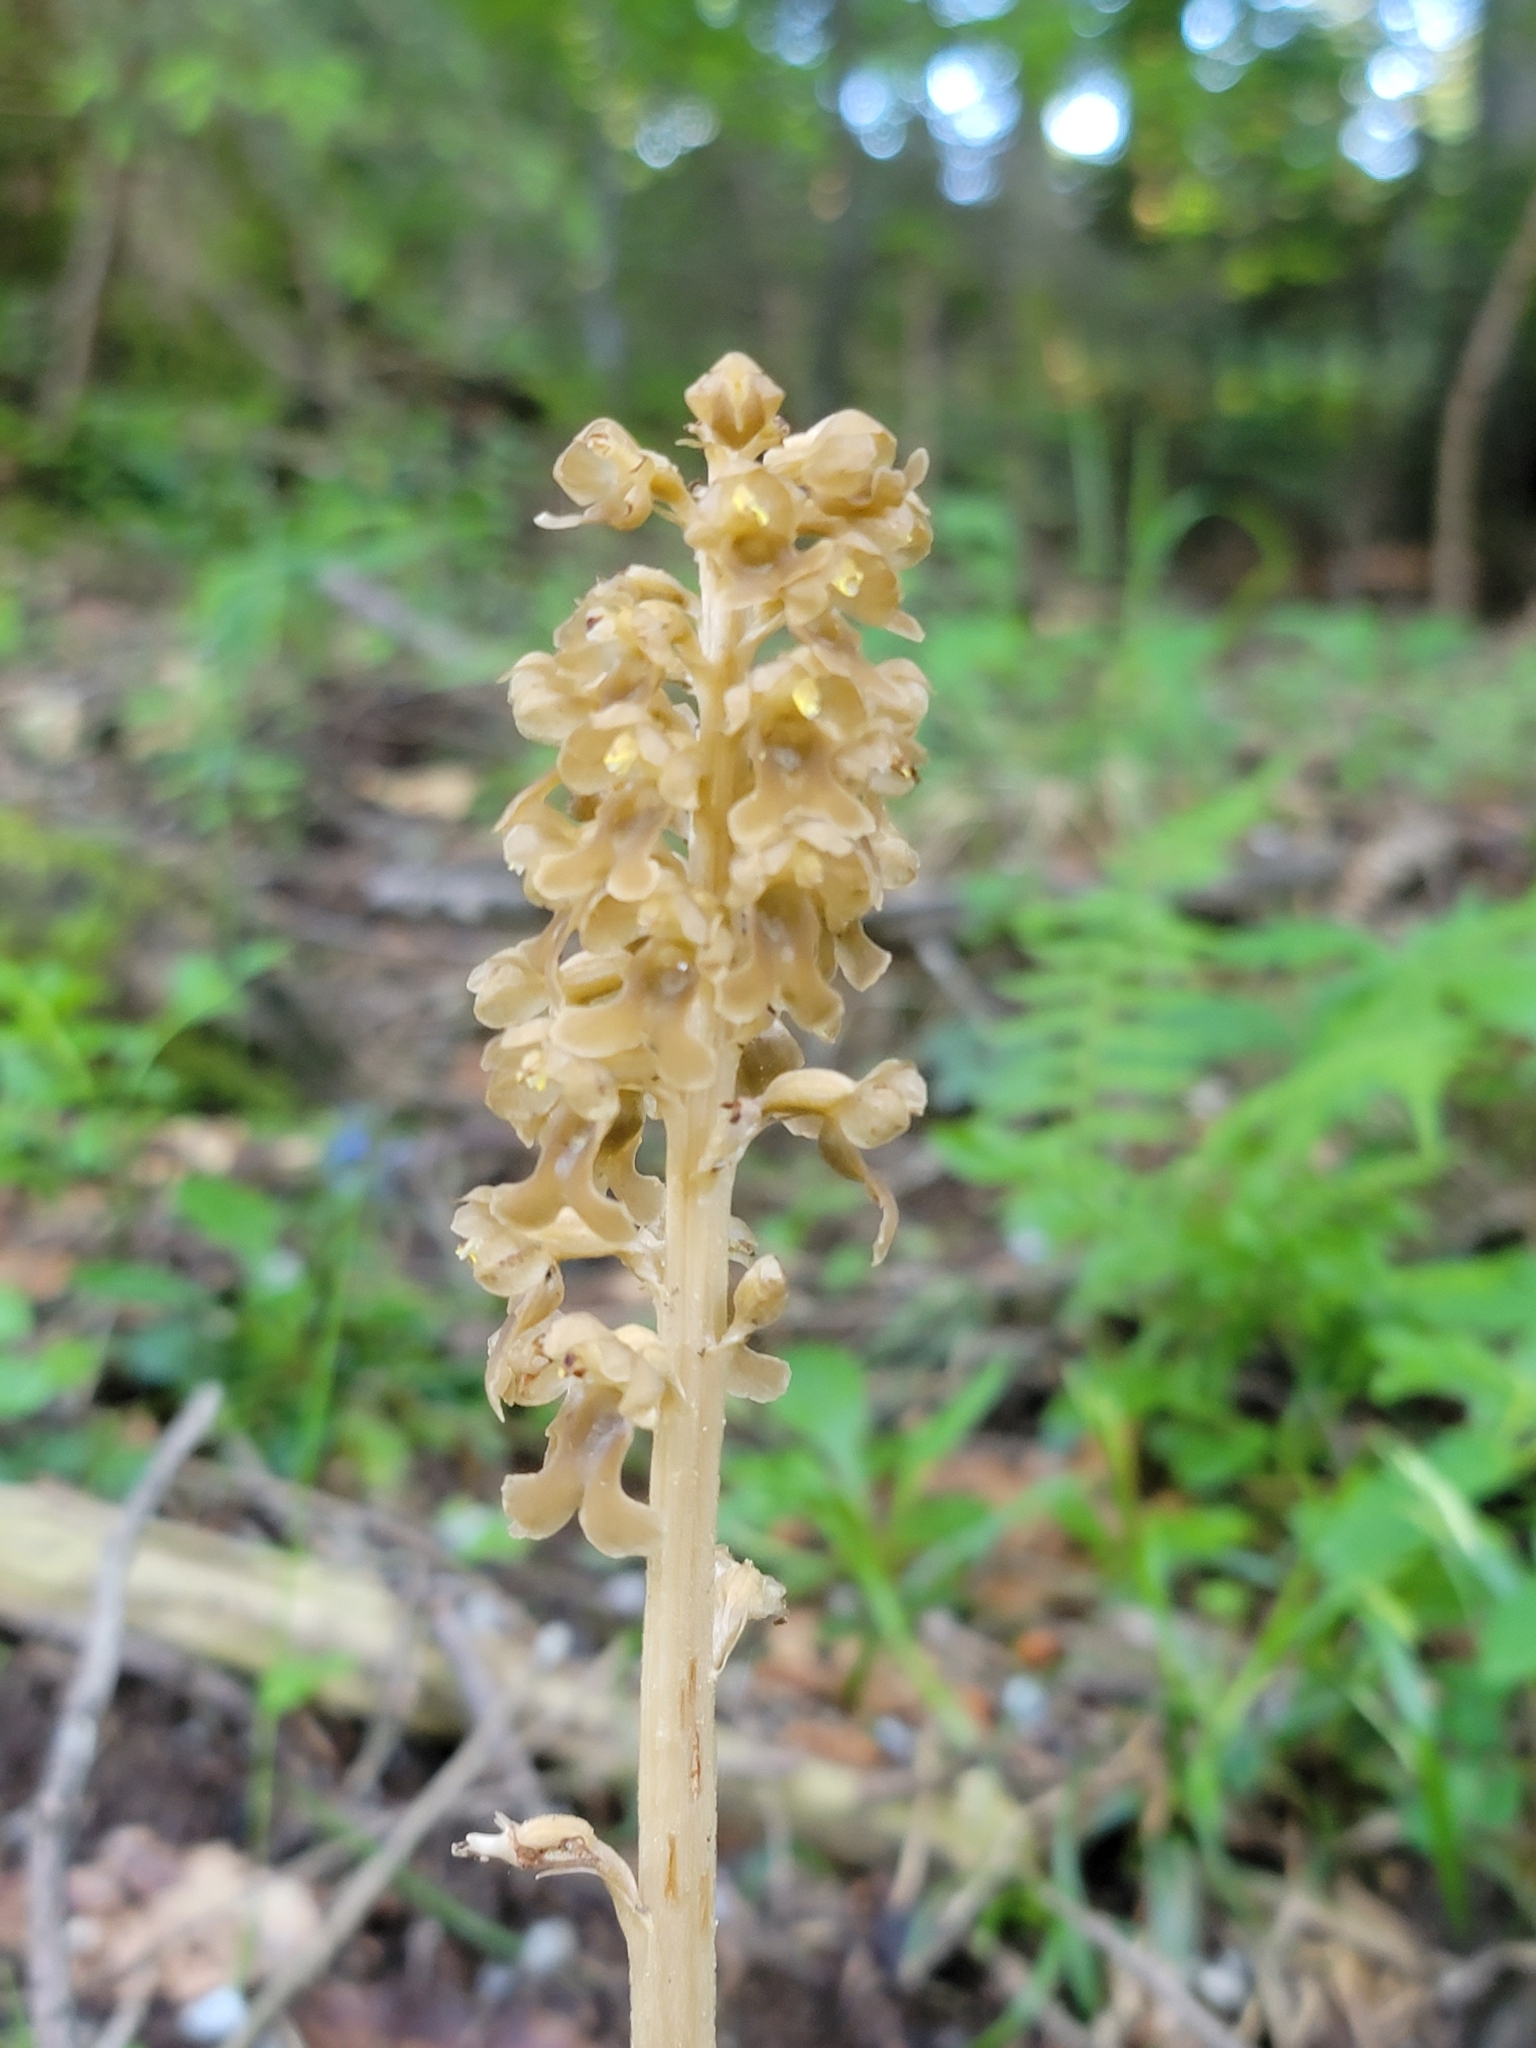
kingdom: Plantae
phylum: Tracheophyta
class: Liliopsida
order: Asparagales
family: Orchidaceae
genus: Neottia
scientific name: Neottia nidus-avis
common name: Bird's-nest orchid
